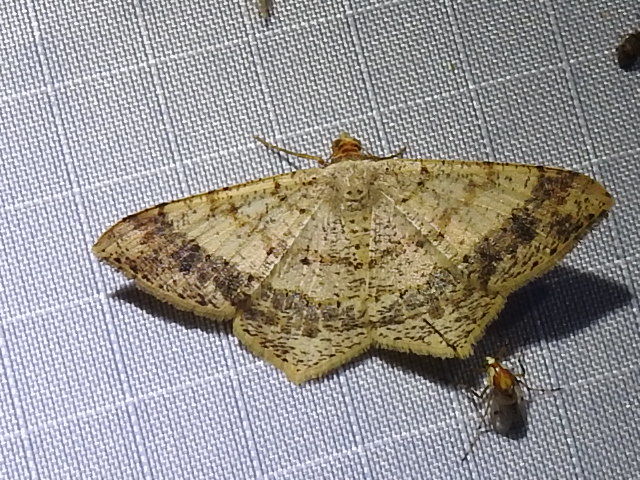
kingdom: Animalia
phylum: Arthropoda
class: Insecta
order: Lepidoptera
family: Geometridae
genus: Macaria
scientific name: Macaria abydata
